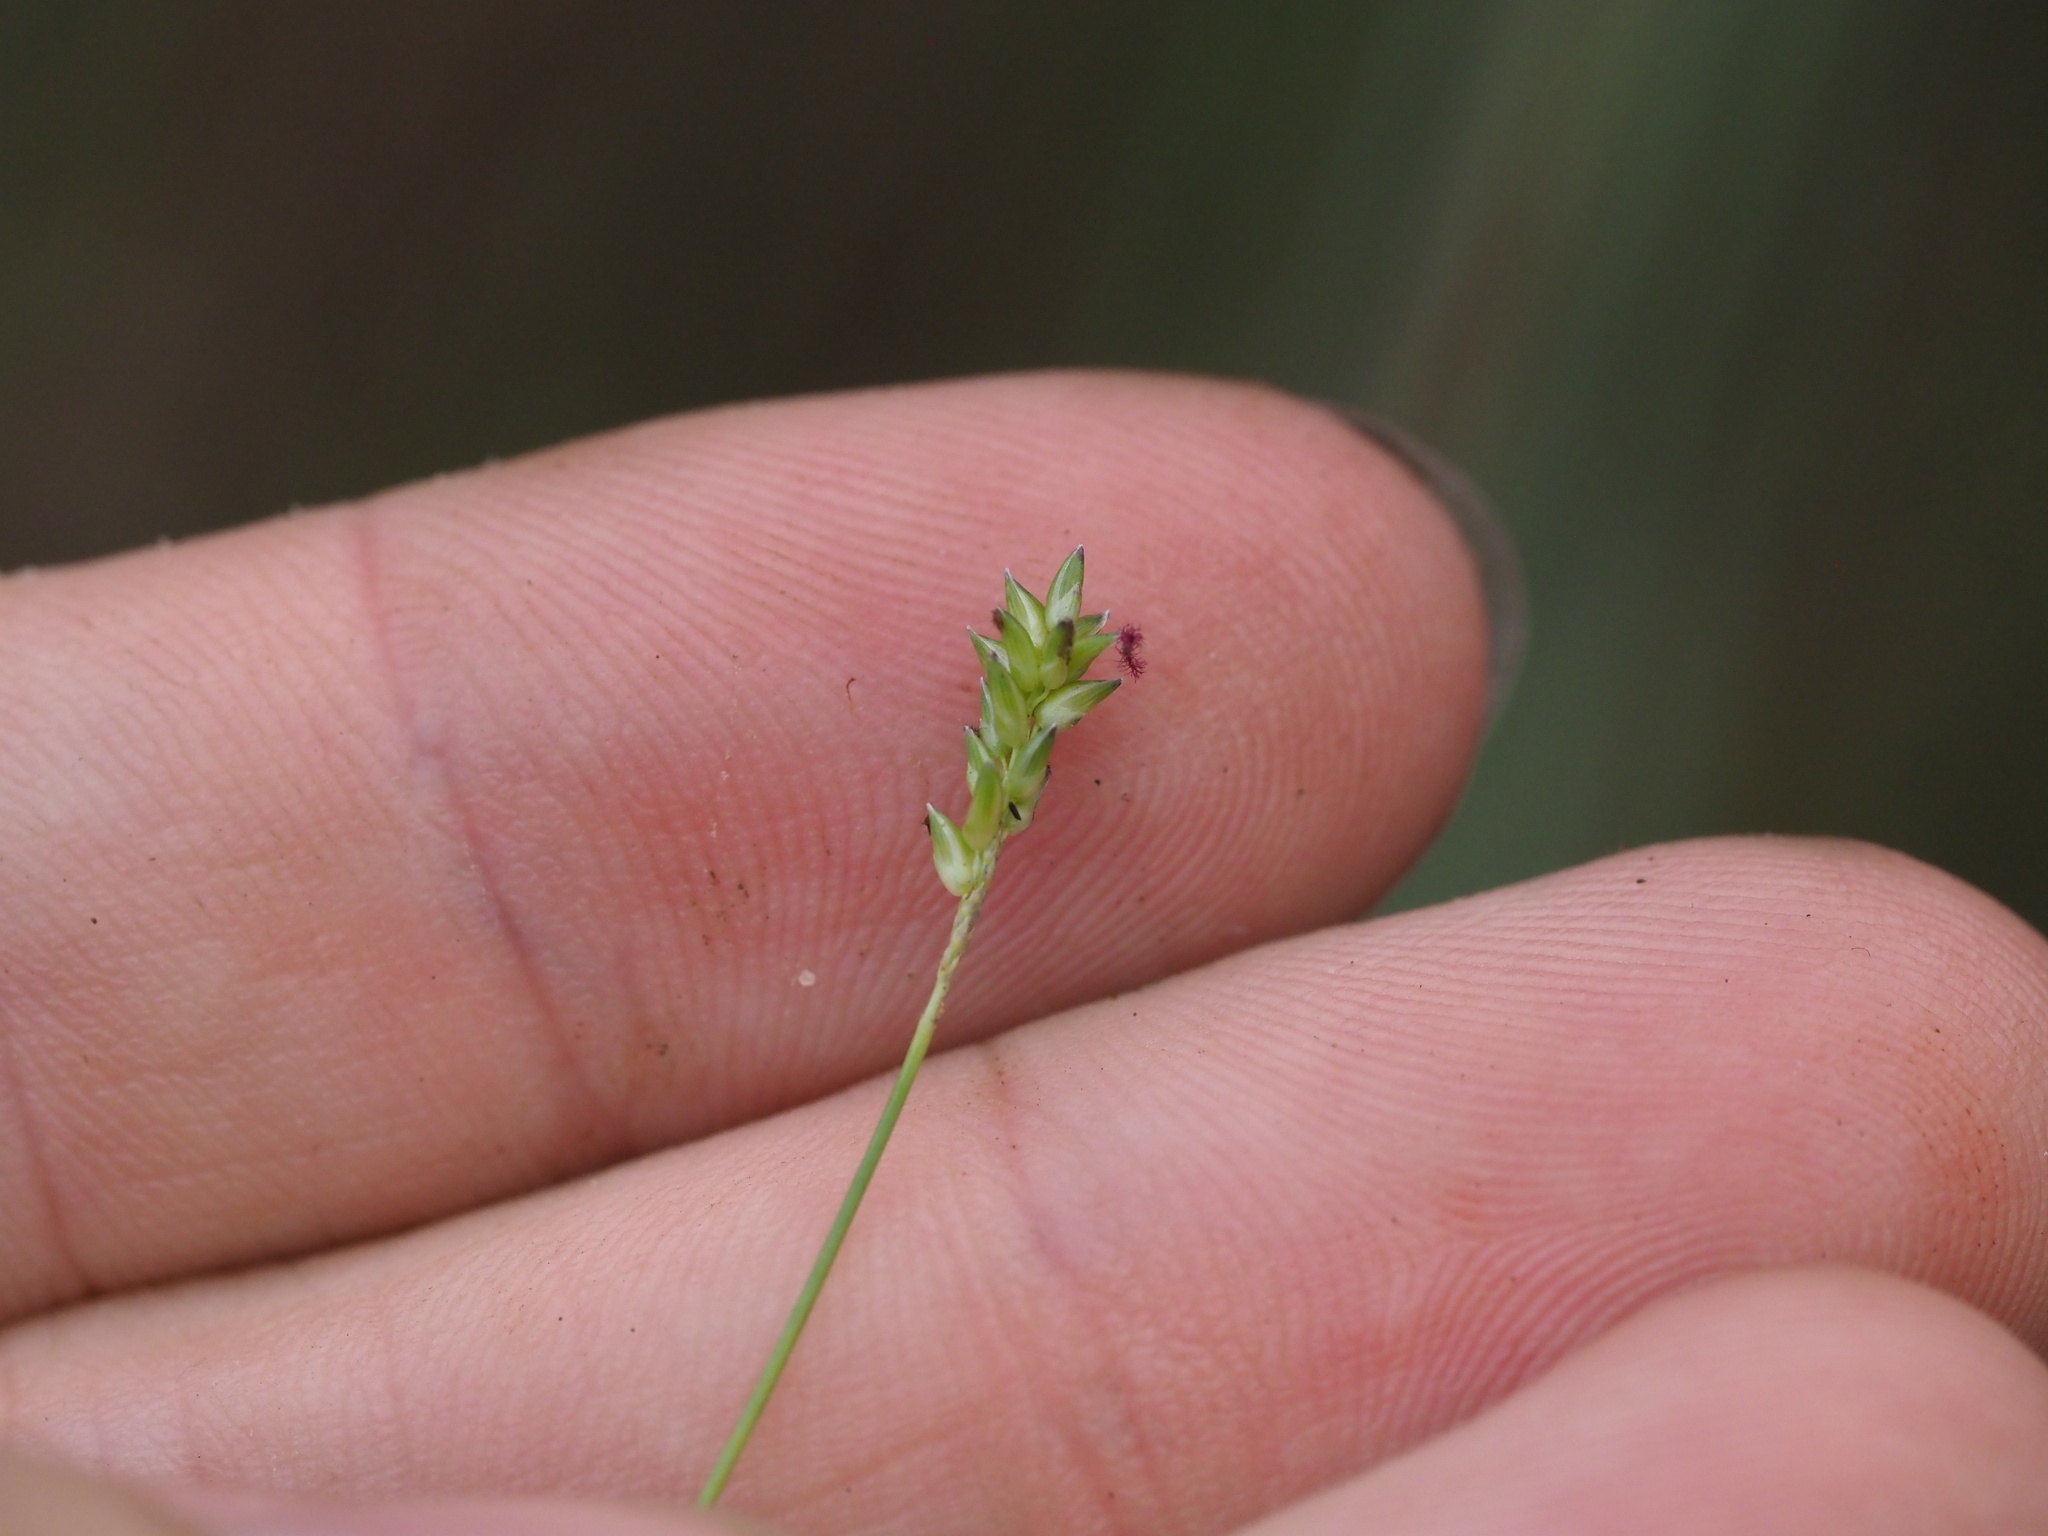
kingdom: Plantae
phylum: Tracheophyta
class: Liliopsida
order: Poales
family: Poaceae
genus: Sacciolepis
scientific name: Sacciolepis indica
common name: Glenwoodgrass
